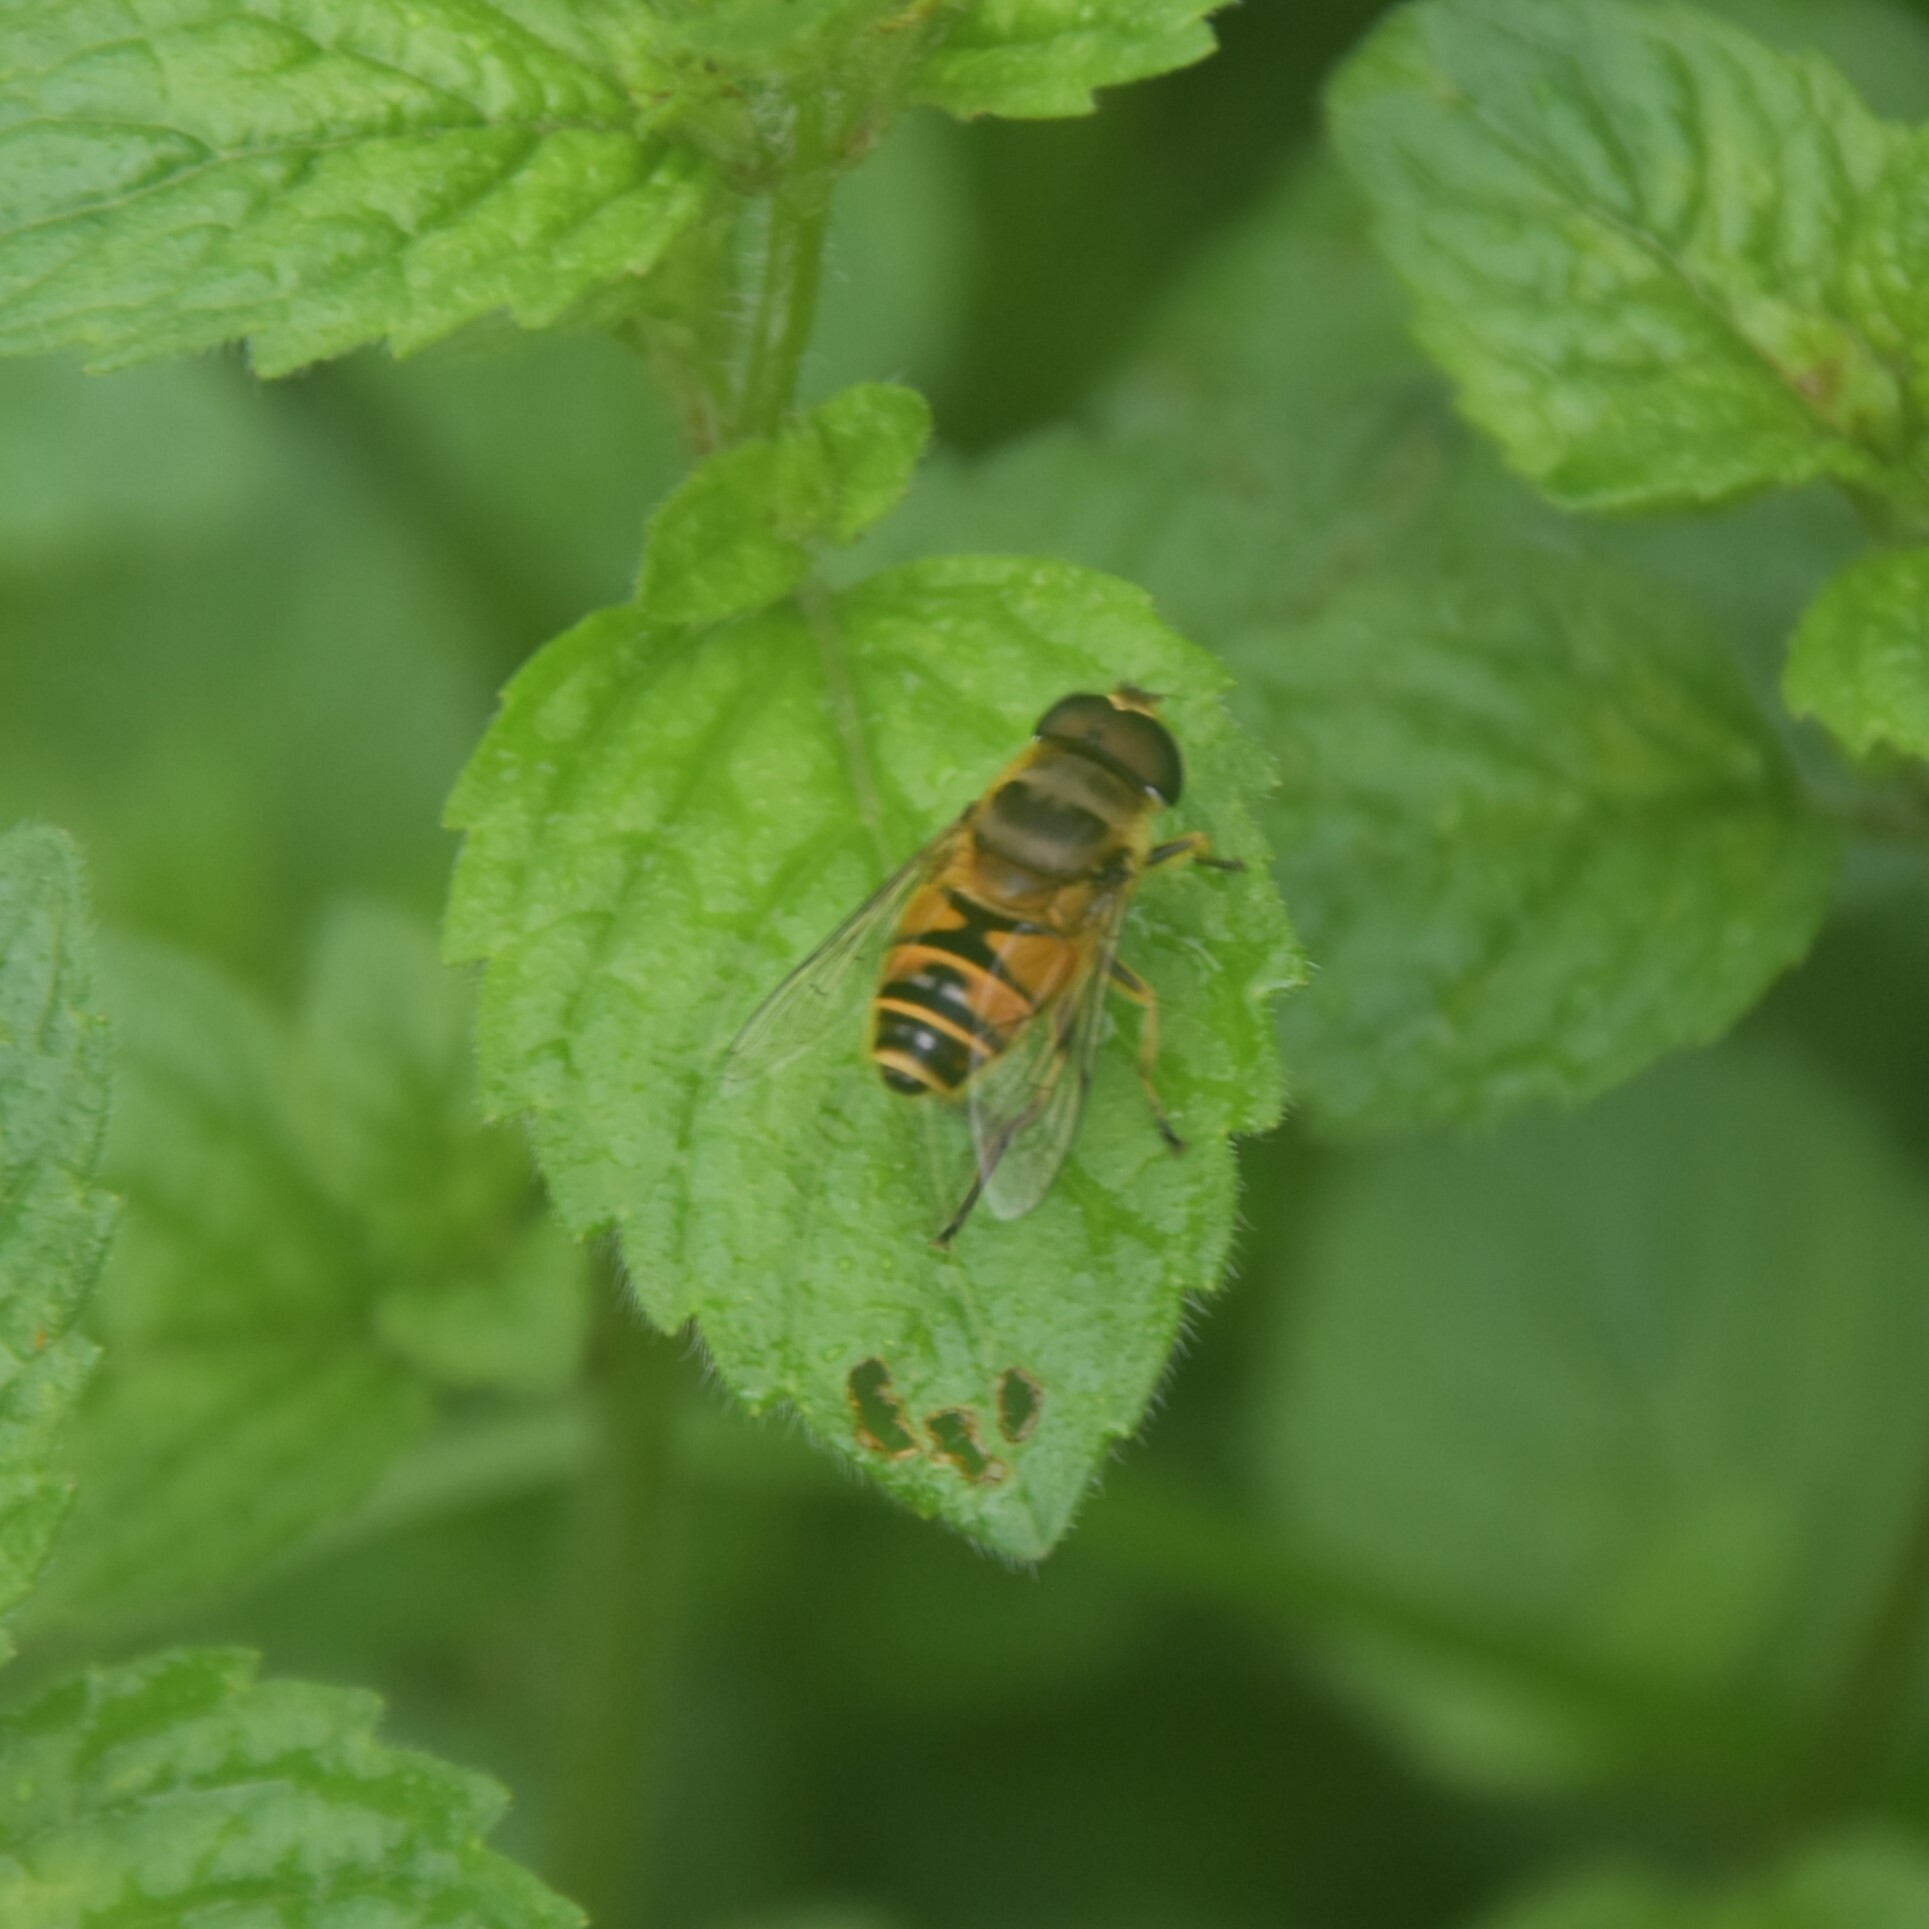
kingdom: Animalia
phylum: Arthropoda
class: Insecta
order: Diptera
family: Syrphidae
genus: Eristalis
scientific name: Eristalis cerealis
